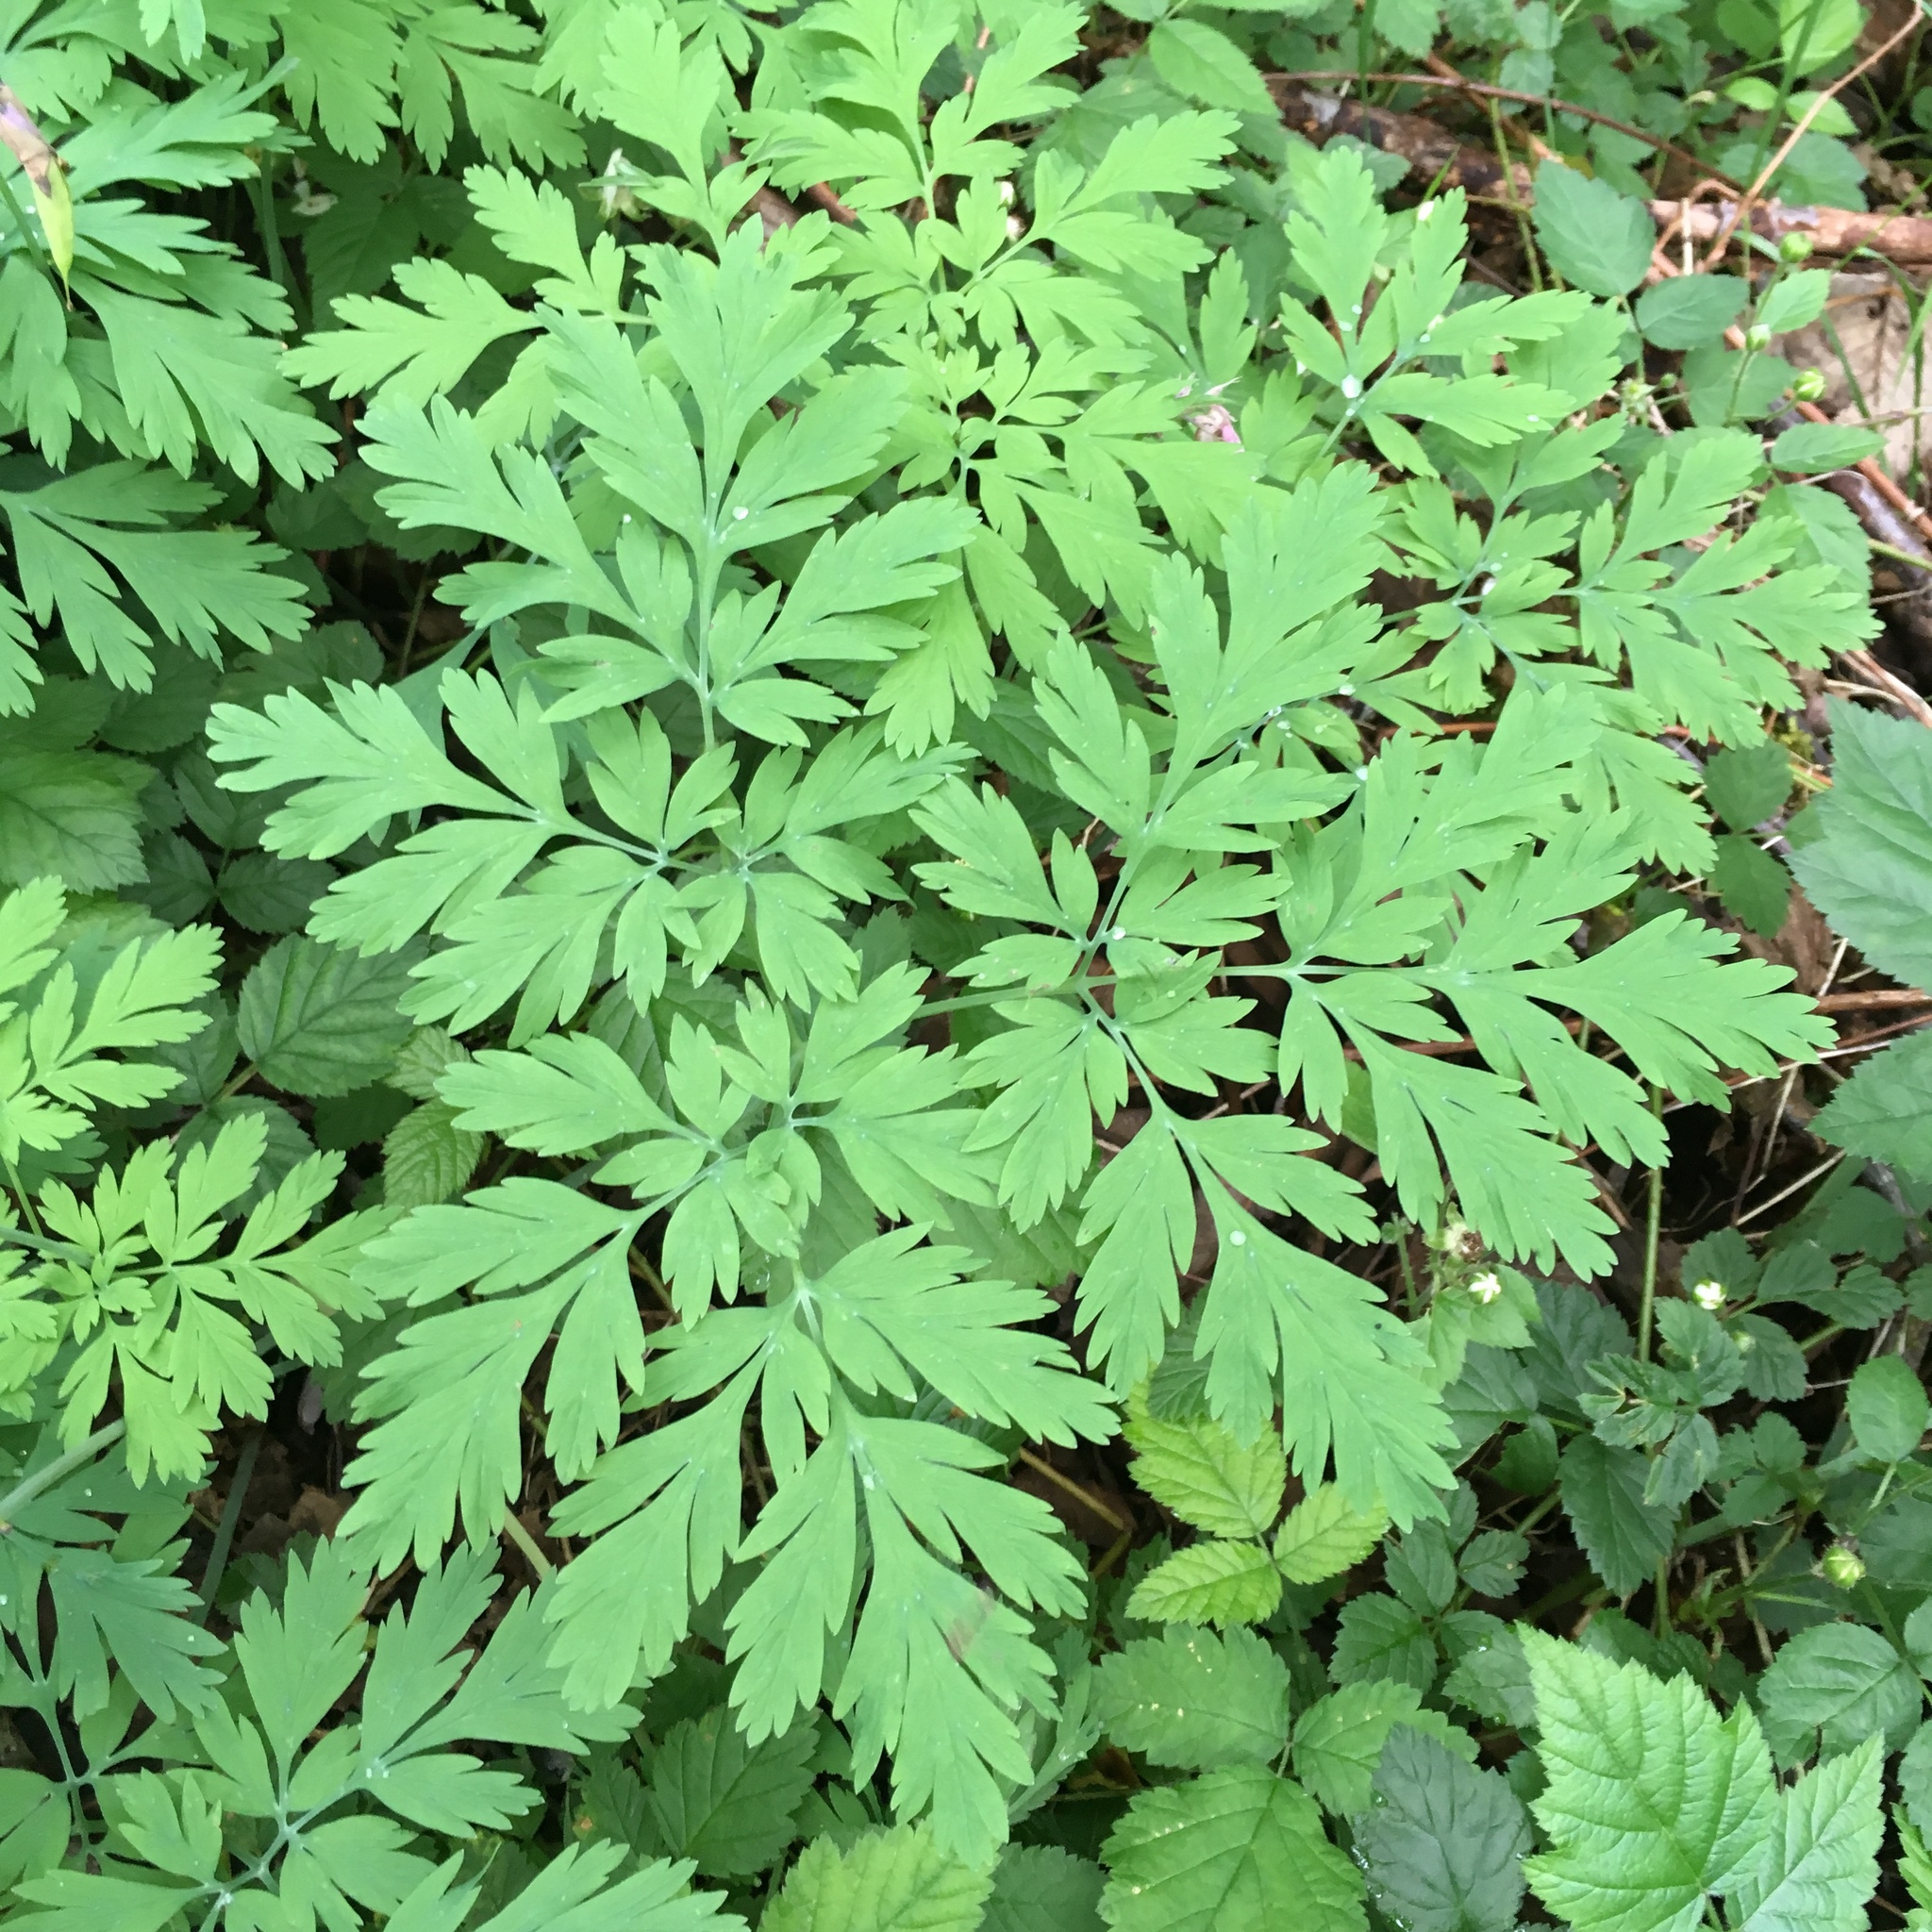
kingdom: Plantae
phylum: Tracheophyta
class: Magnoliopsida
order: Ranunculales
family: Papaveraceae
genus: Dicentra
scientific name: Dicentra formosa
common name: Bleeding-heart
